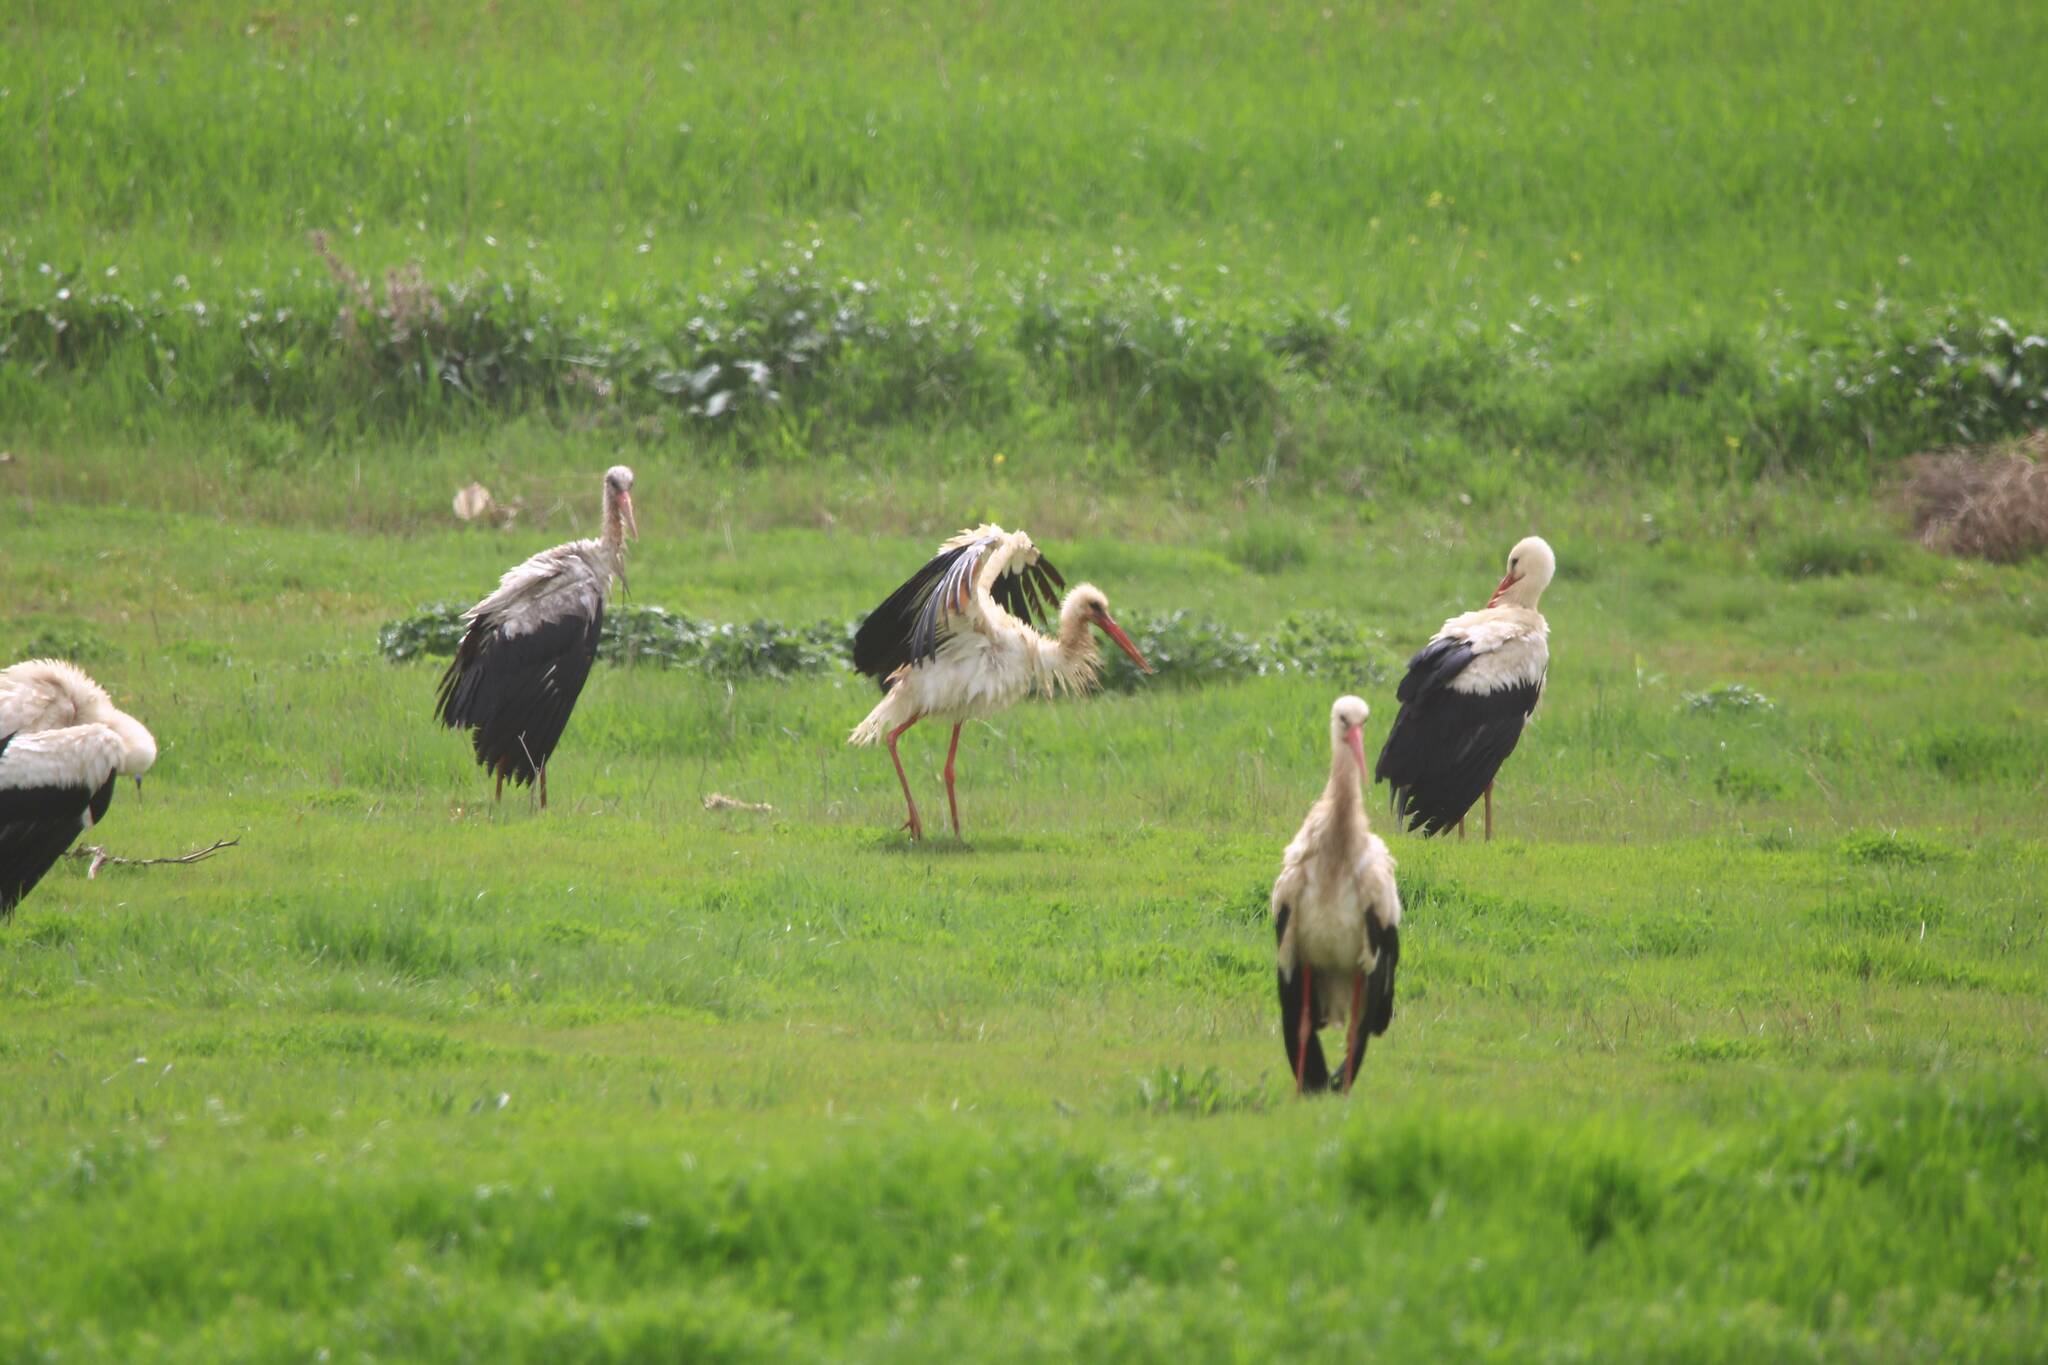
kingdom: Animalia
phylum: Chordata
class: Aves
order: Ciconiiformes
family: Ciconiidae
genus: Ciconia
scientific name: Ciconia ciconia
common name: White stork
